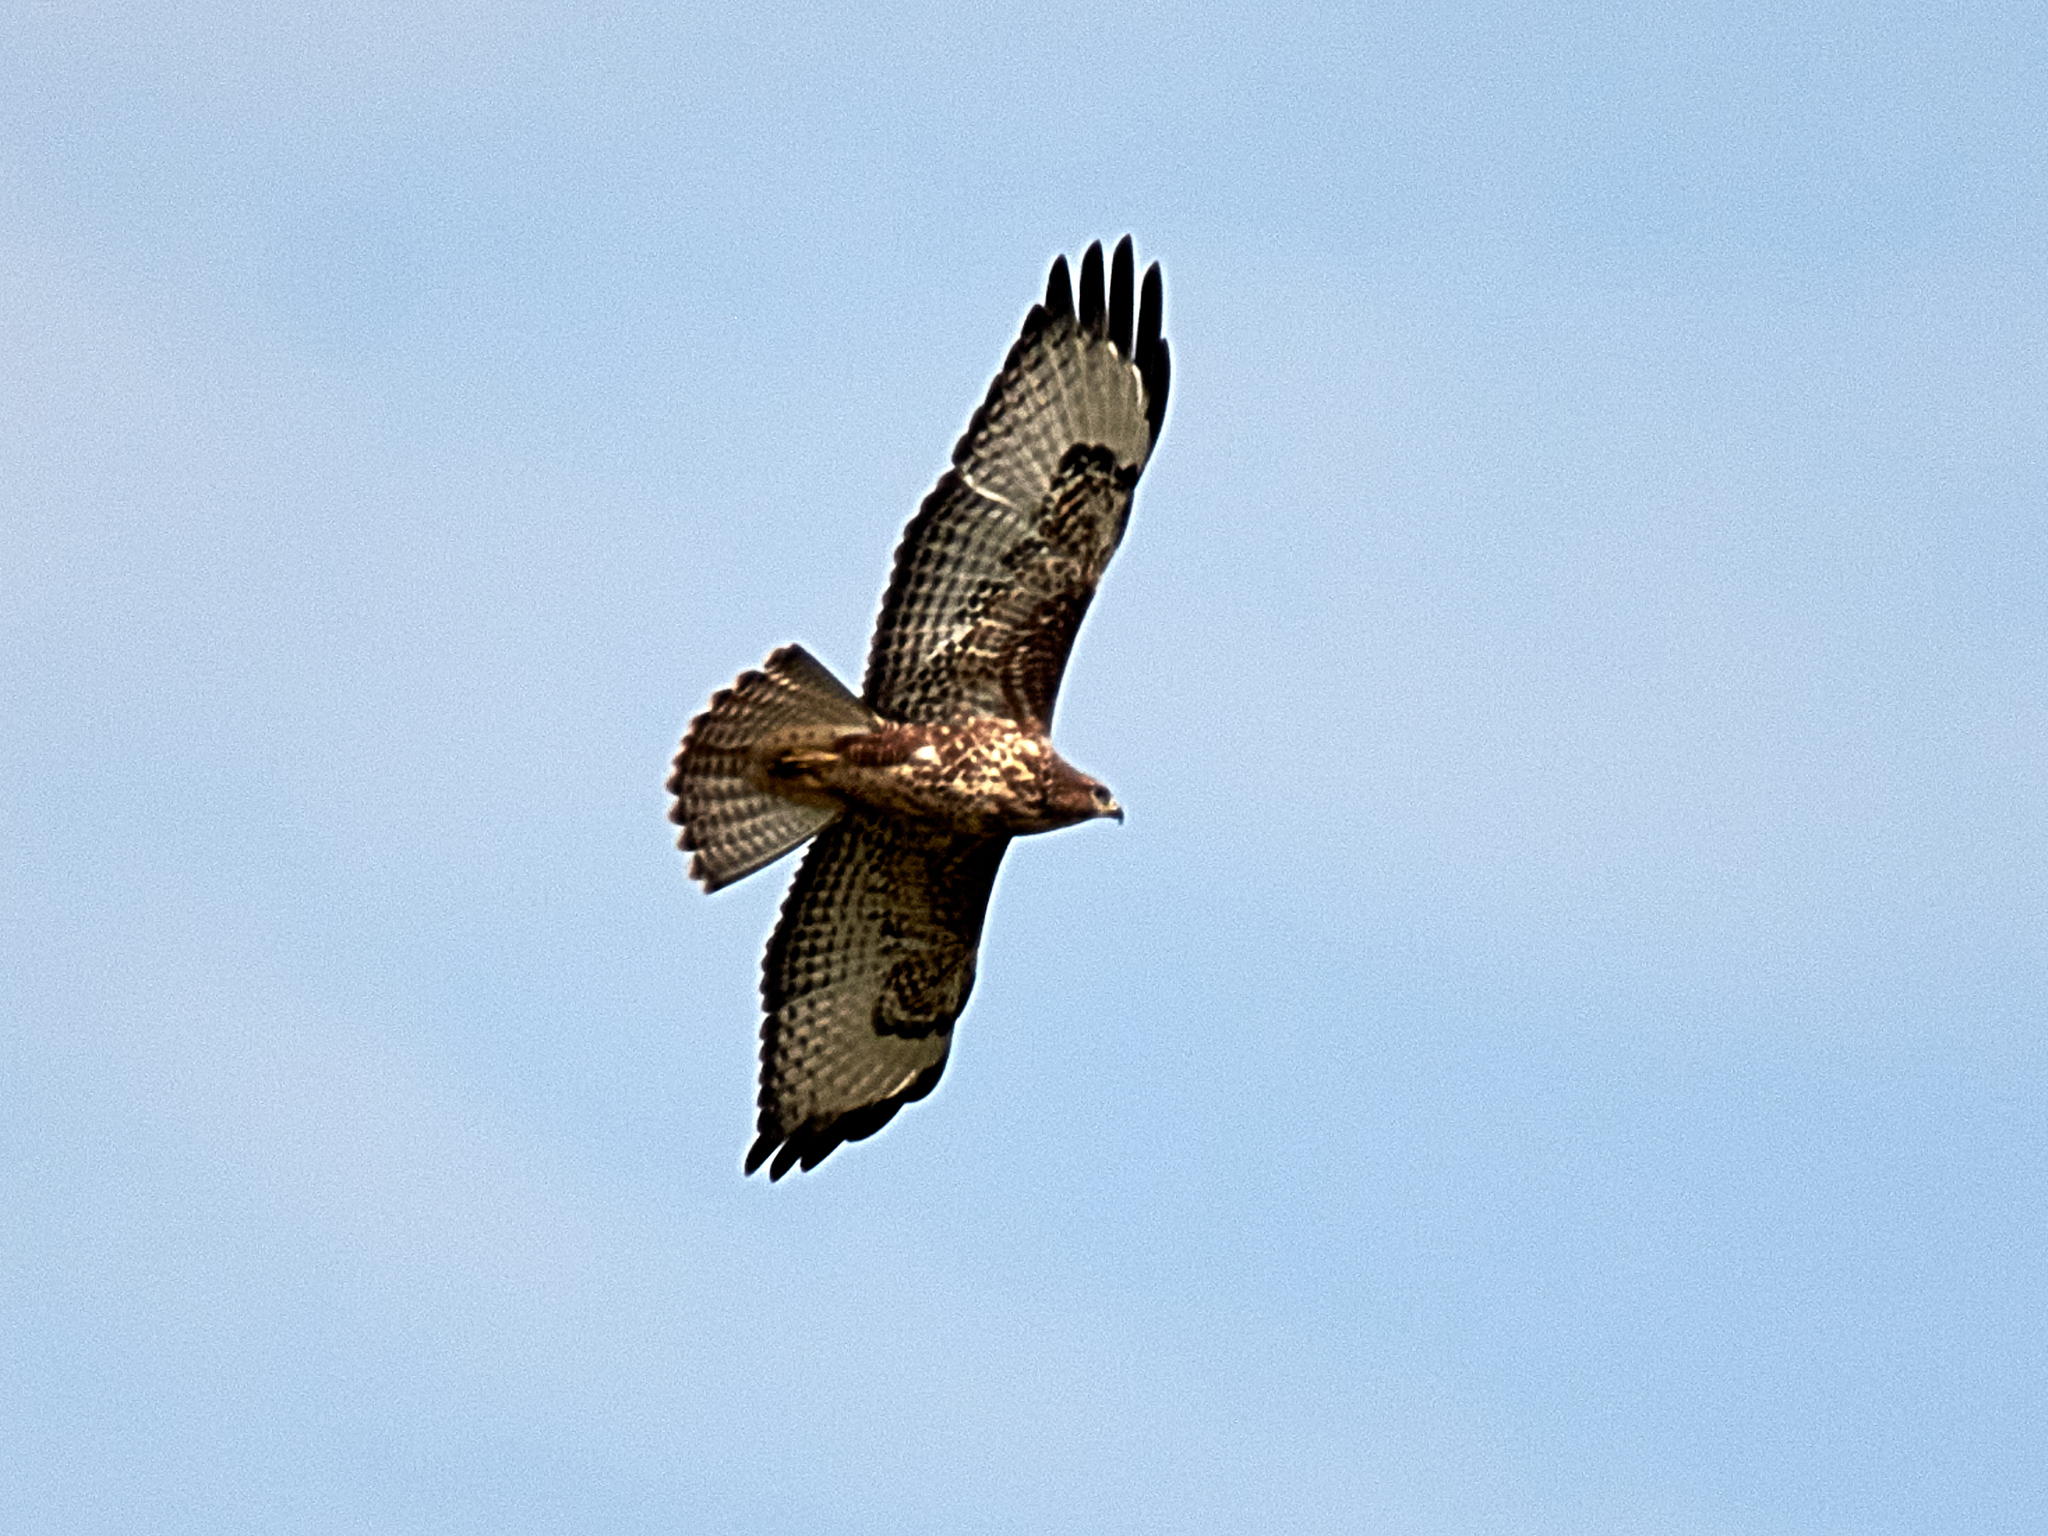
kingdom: Animalia
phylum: Chordata
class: Aves
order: Accipitriformes
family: Accipitridae
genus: Buteo
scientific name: Buteo buteo
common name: Common buzzard
